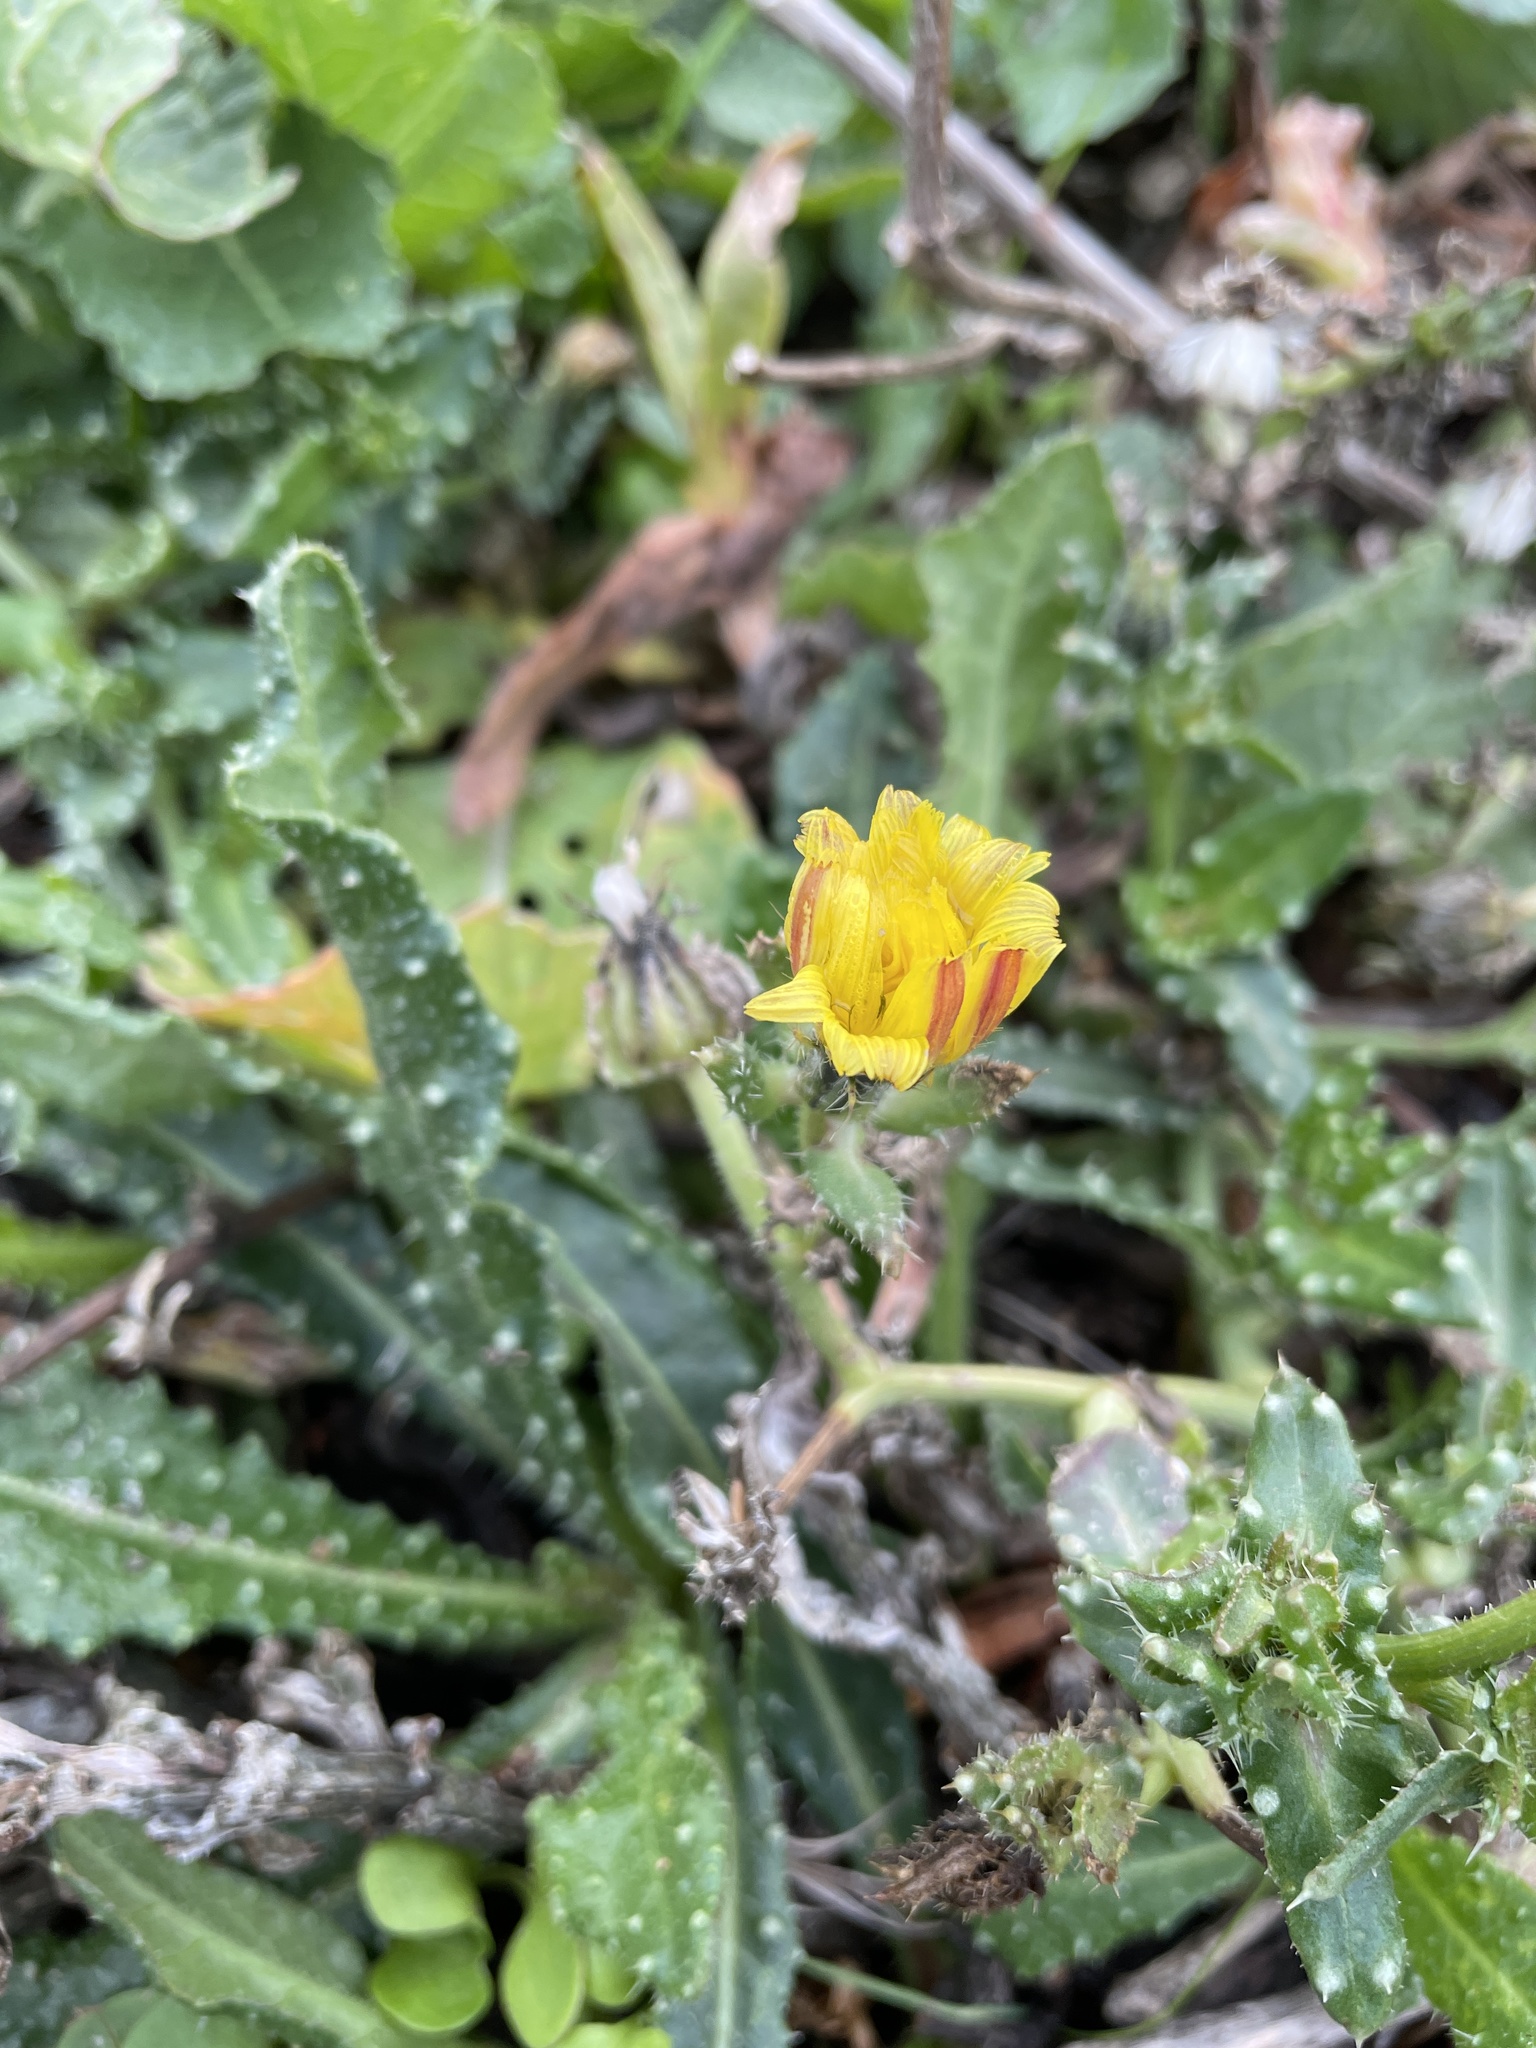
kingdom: Plantae
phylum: Tracheophyta
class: Magnoliopsida
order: Asterales
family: Asteraceae
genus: Helminthotheca
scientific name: Helminthotheca echioides
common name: Ox-tongue
